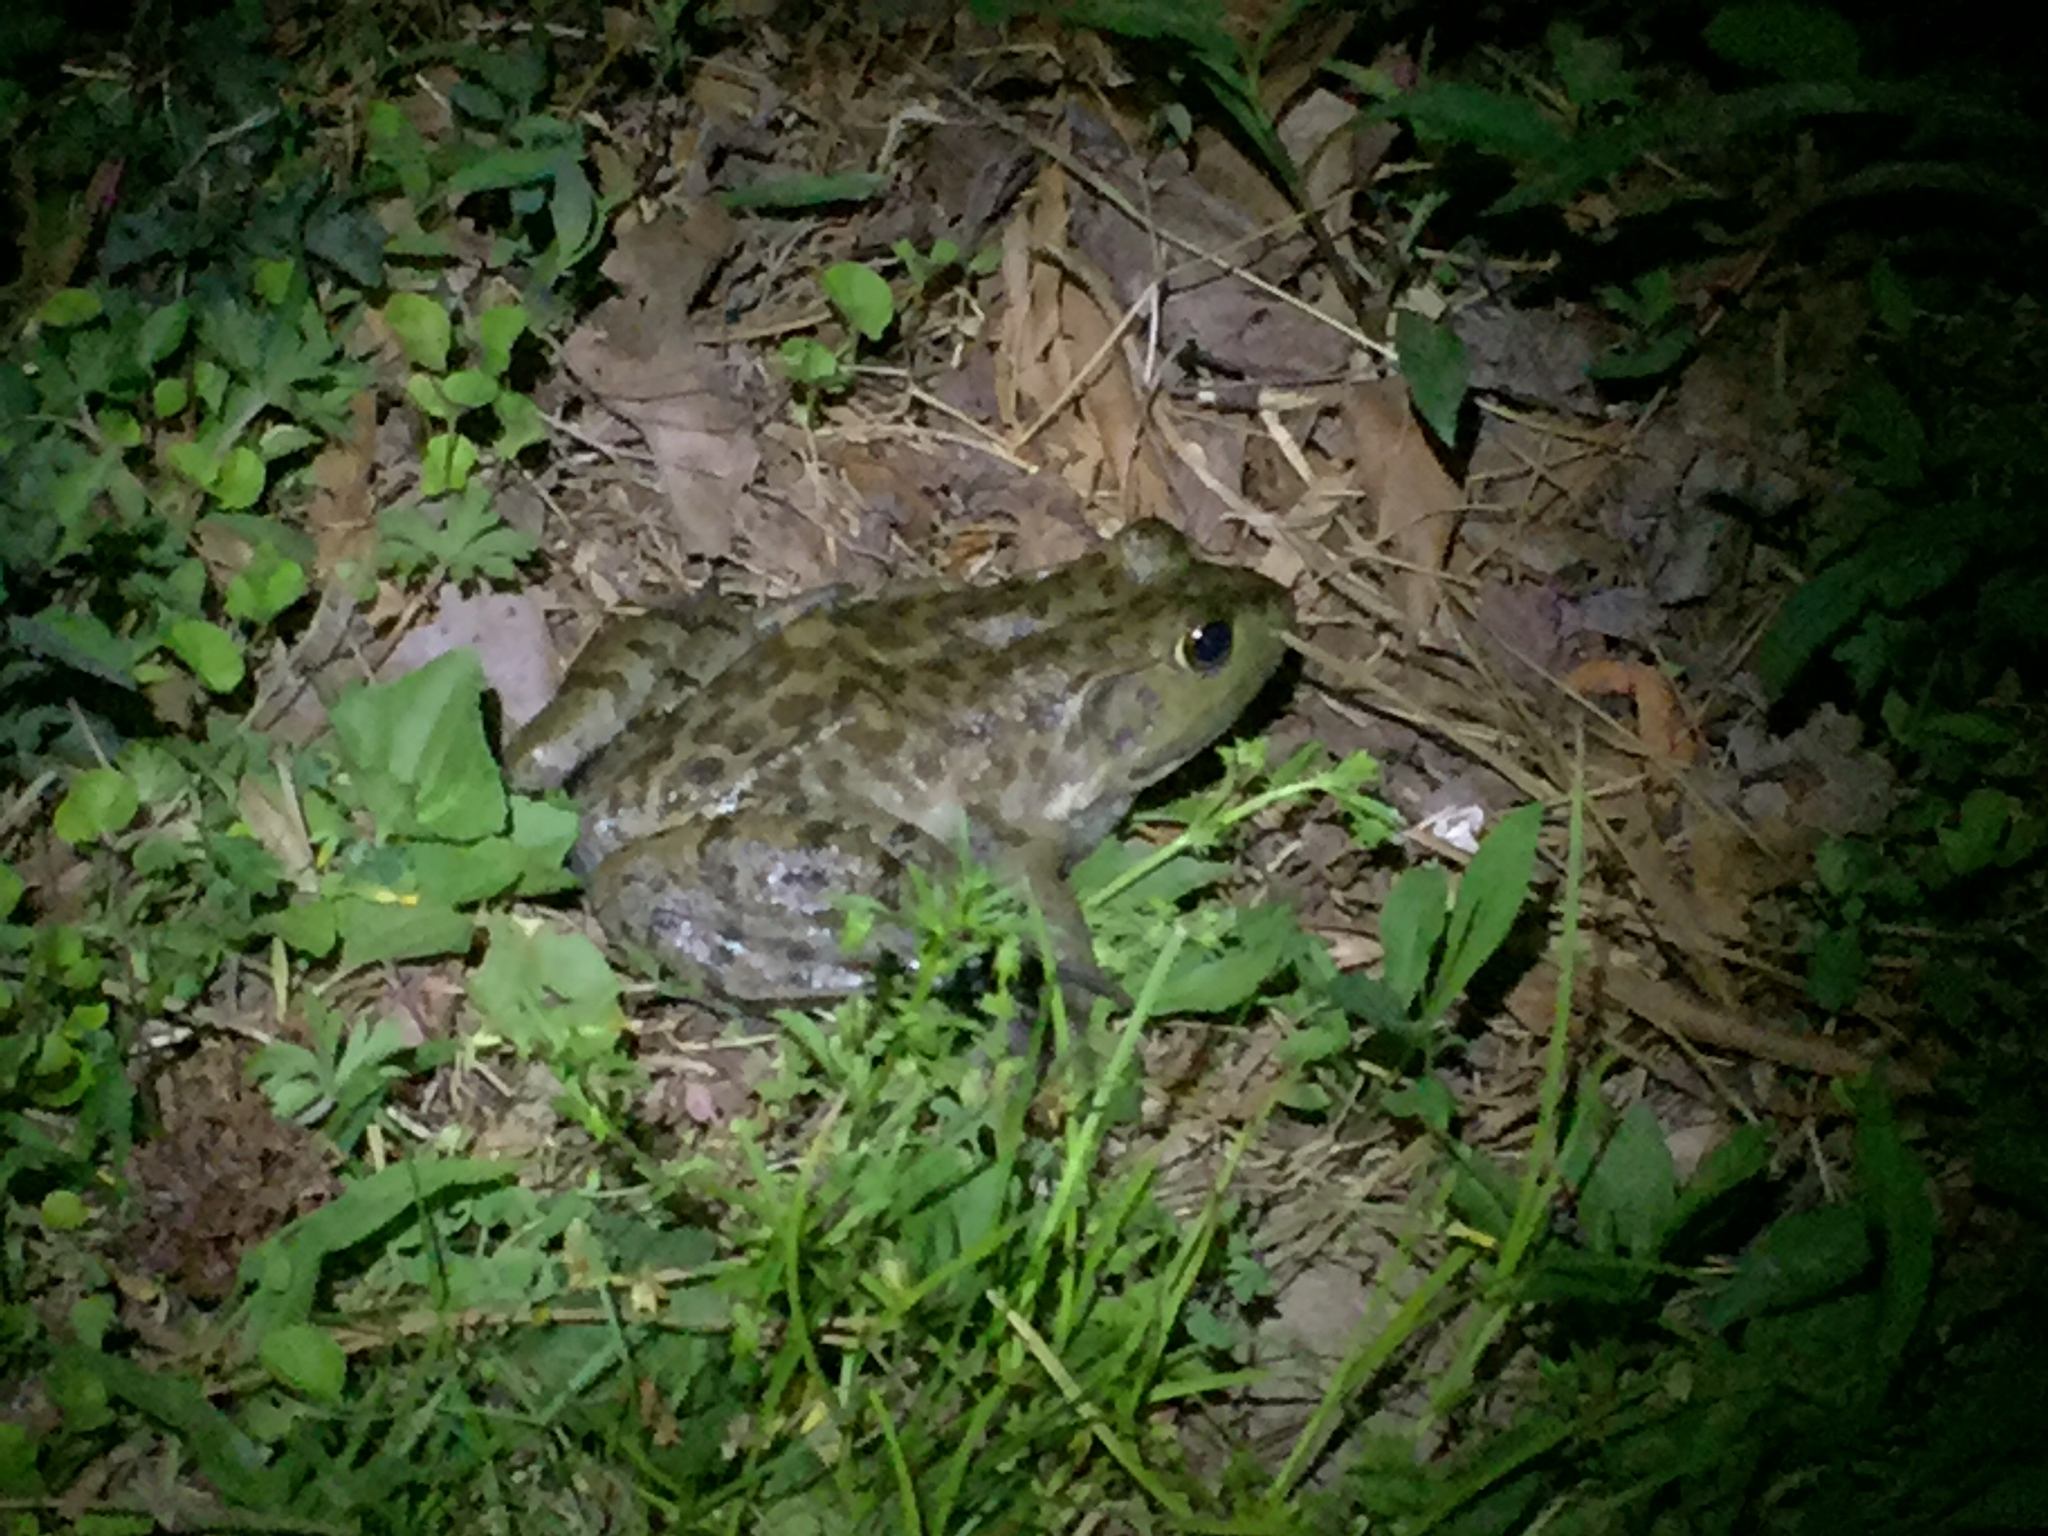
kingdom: Animalia
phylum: Chordata
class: Amphibia
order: Anura
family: Ranidae
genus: Lithobates
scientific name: Lithobates catesbeianus
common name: American bullfrog
